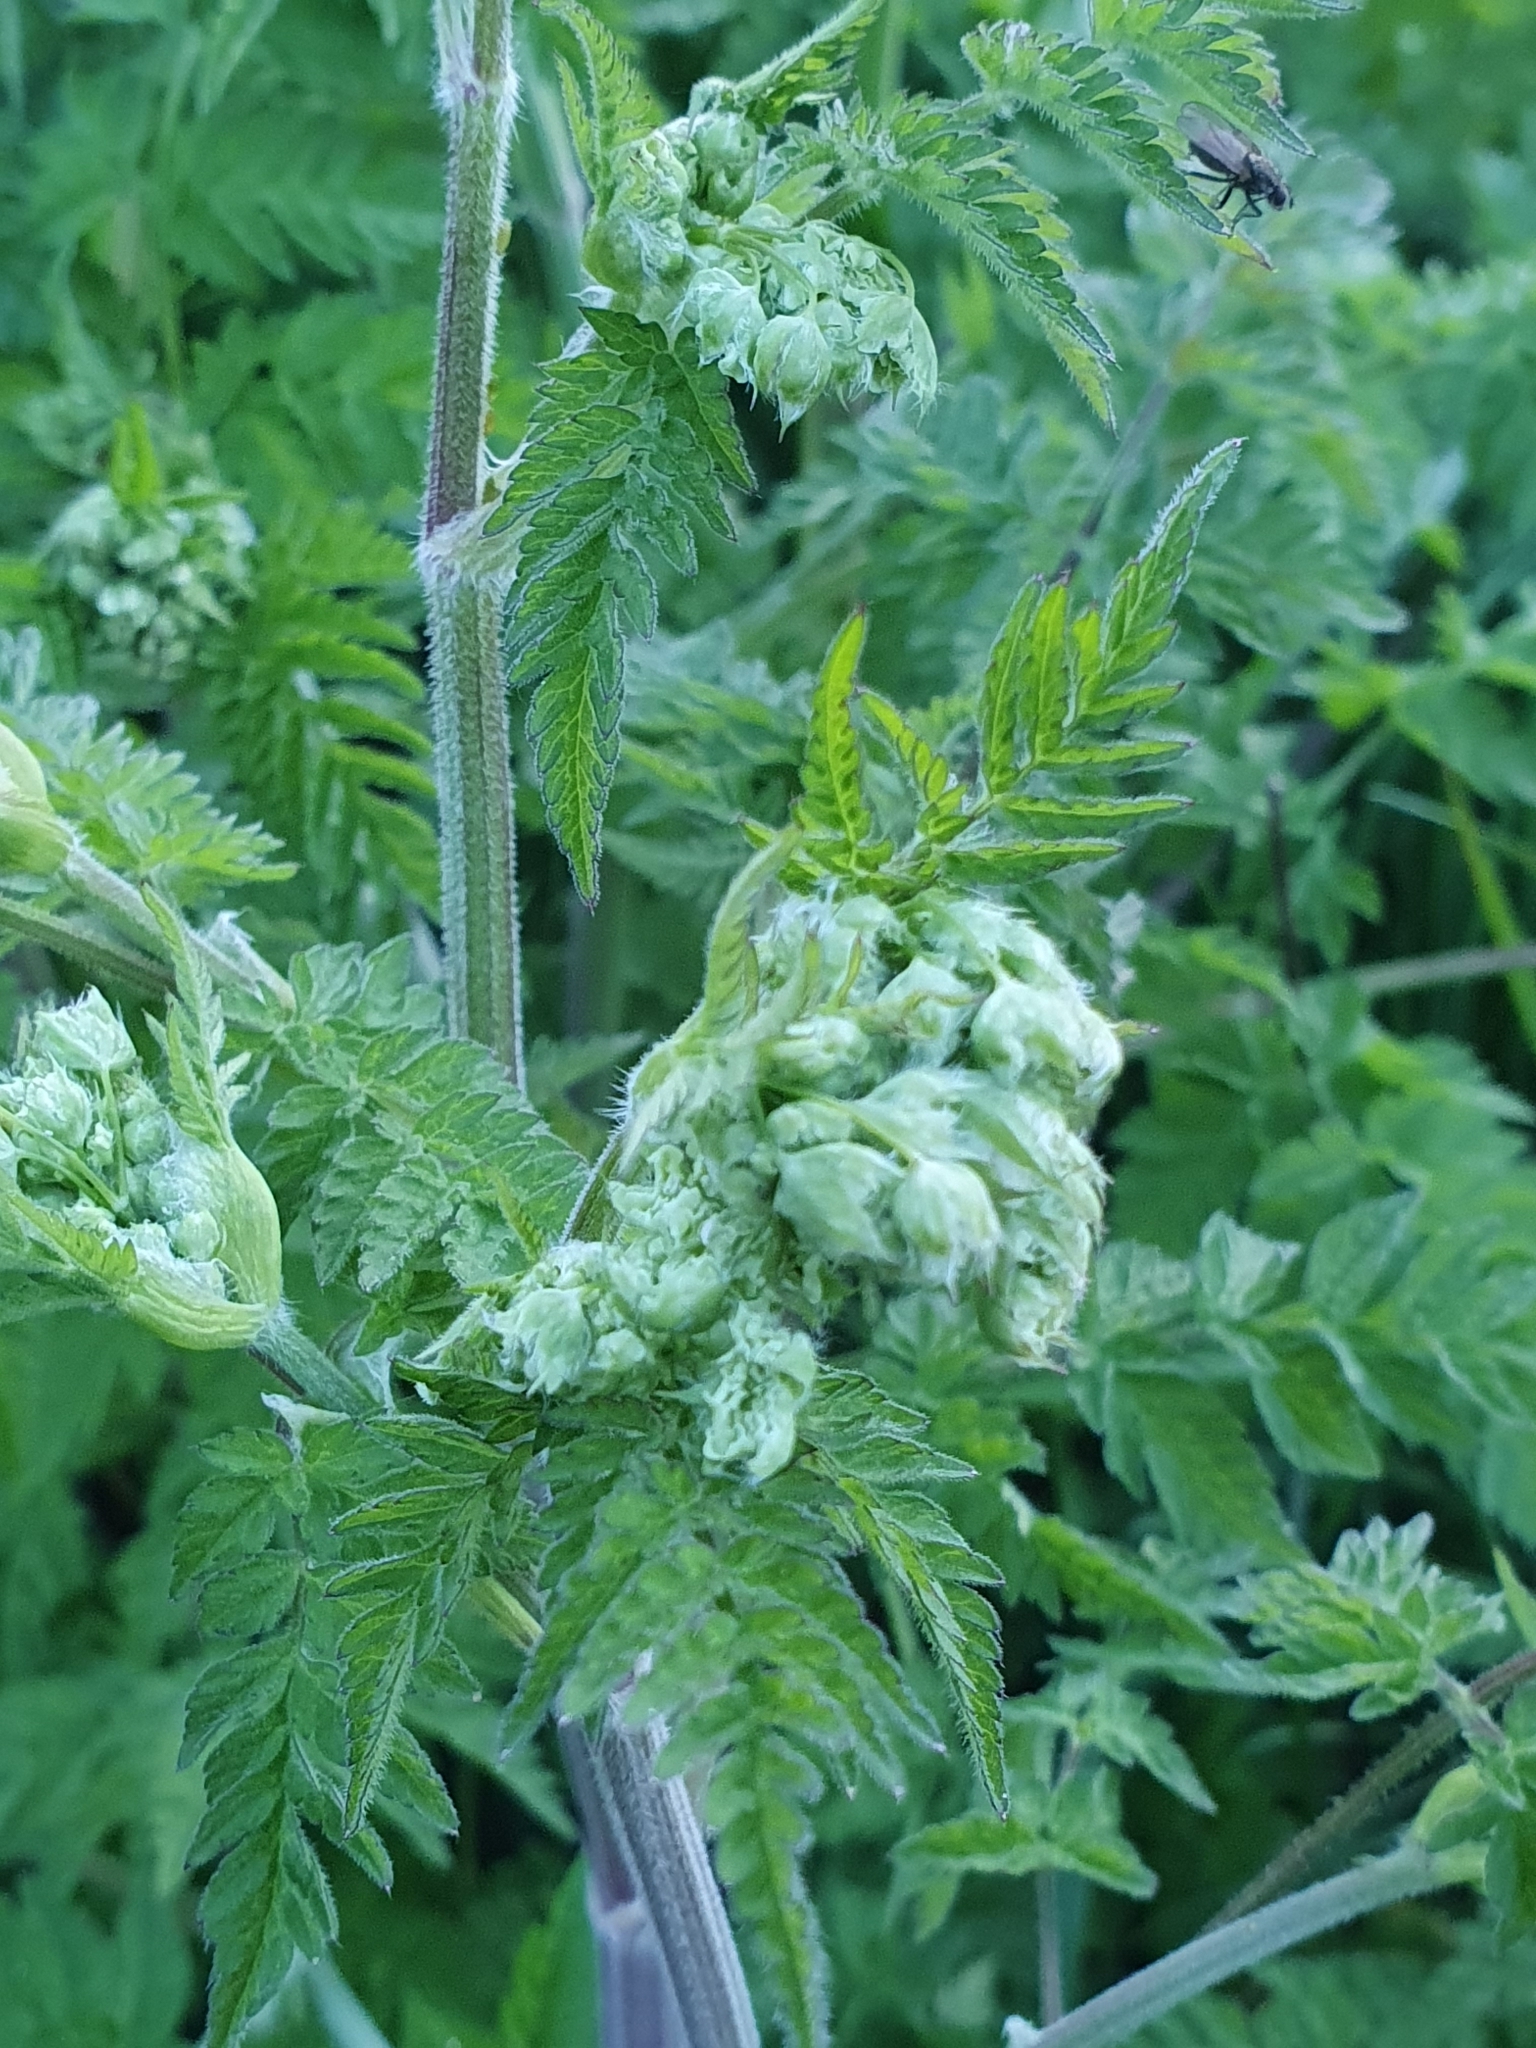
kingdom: Plantae
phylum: Tracheophyta
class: Magnoliopsida
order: Apiales
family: Apiaceae
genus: Anthriscus
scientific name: Anthriscus sylvestris
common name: Cow parsley
